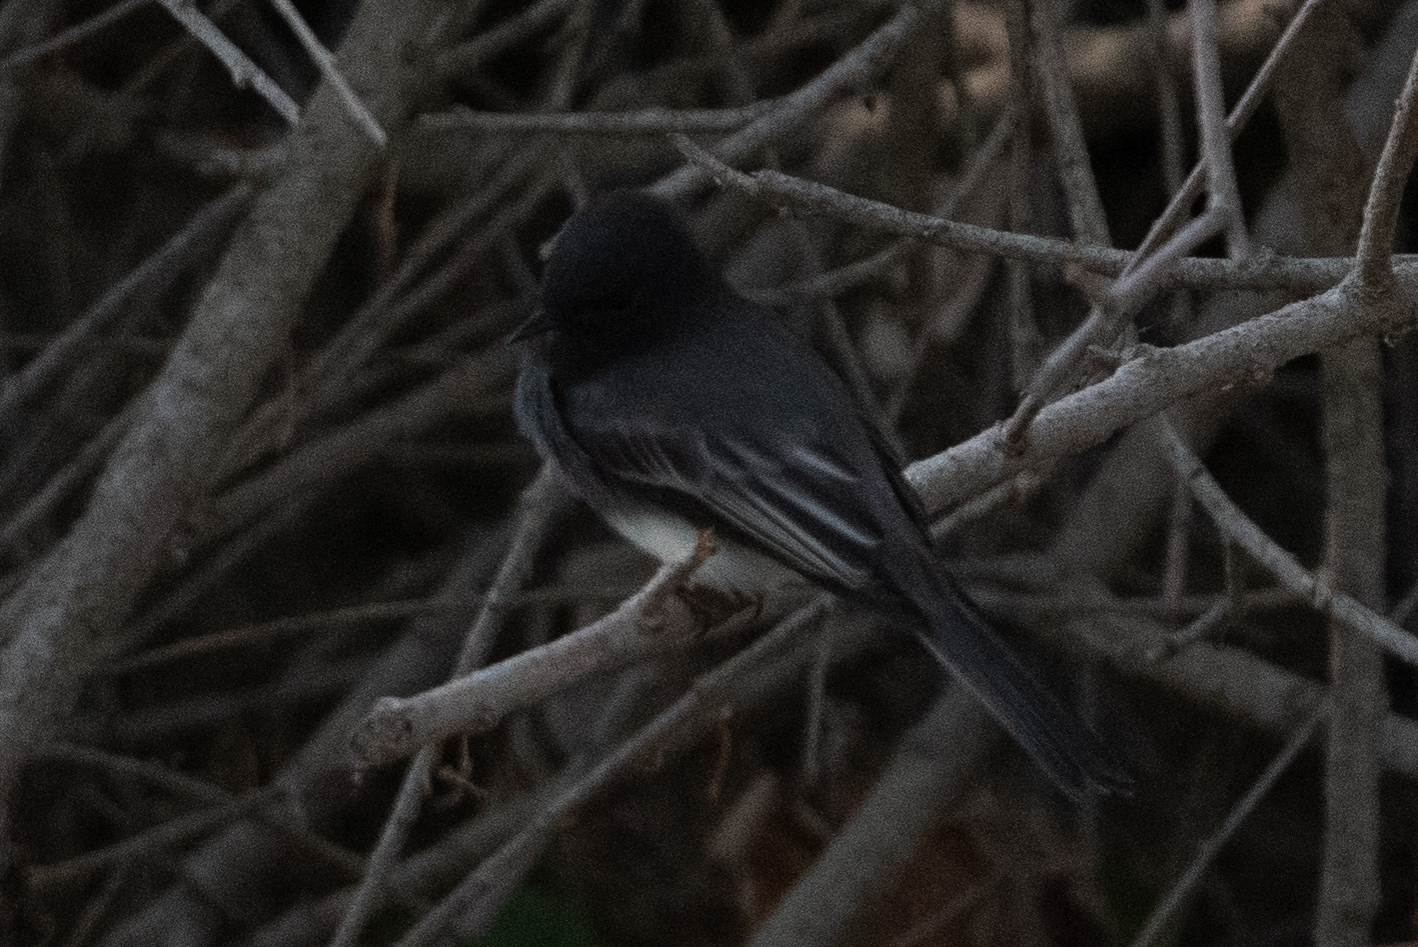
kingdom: Animalia
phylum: Chordata
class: Aves
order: Passeriformes
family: Tyrannidae
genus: Sayornis
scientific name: Sayornis nigricans
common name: Black phoebe
